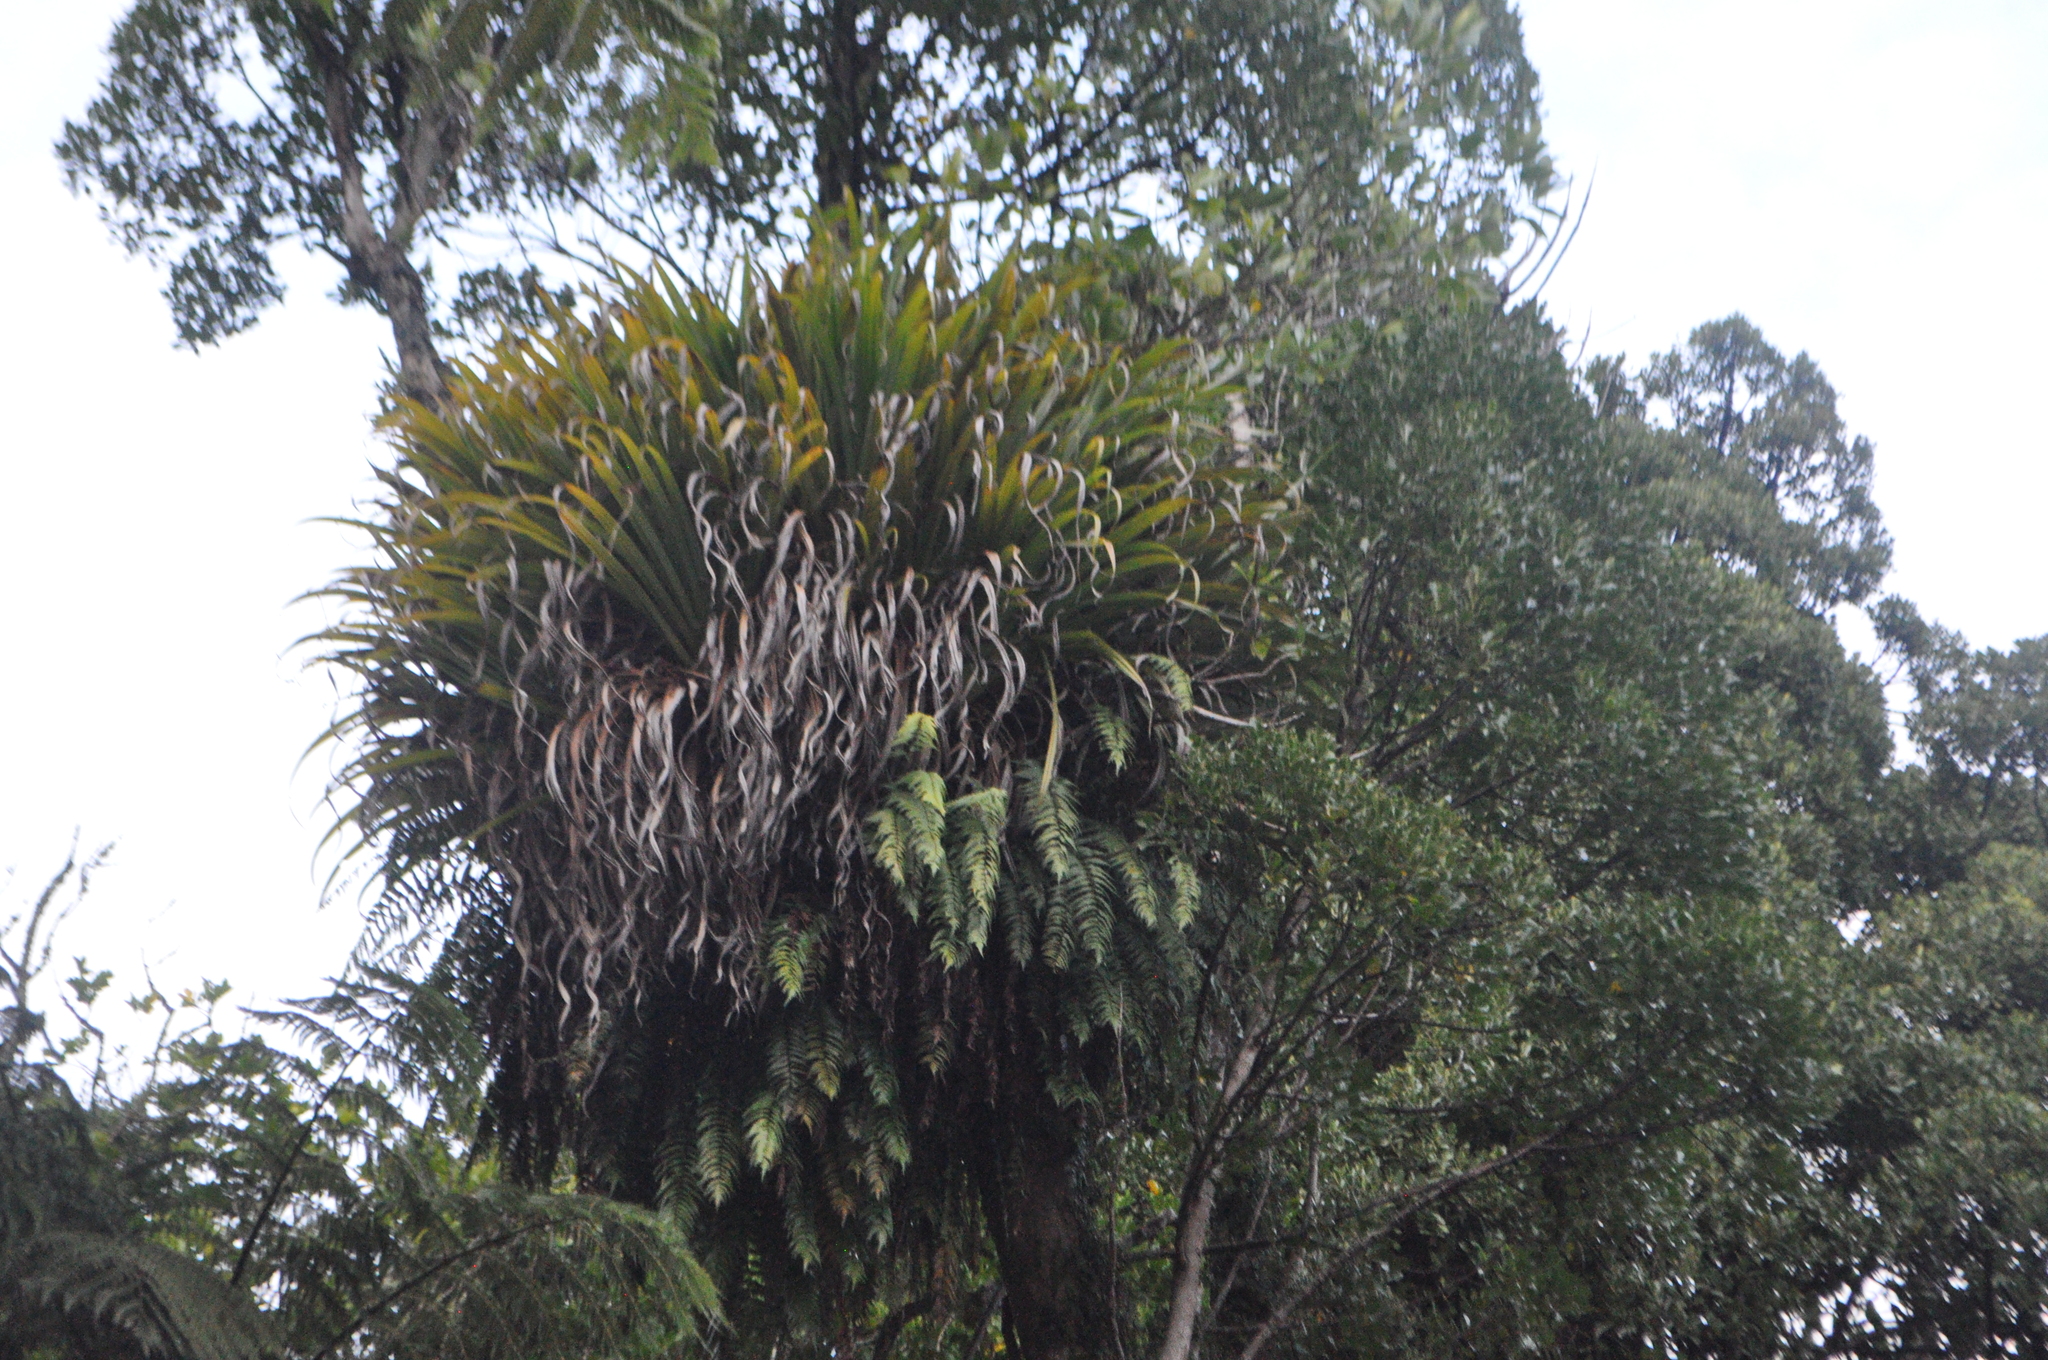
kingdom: Plantae
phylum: Tracheophyta
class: Liliopsida
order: Asparagales
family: Asteliaceae
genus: Astelia
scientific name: Astelia hastata
